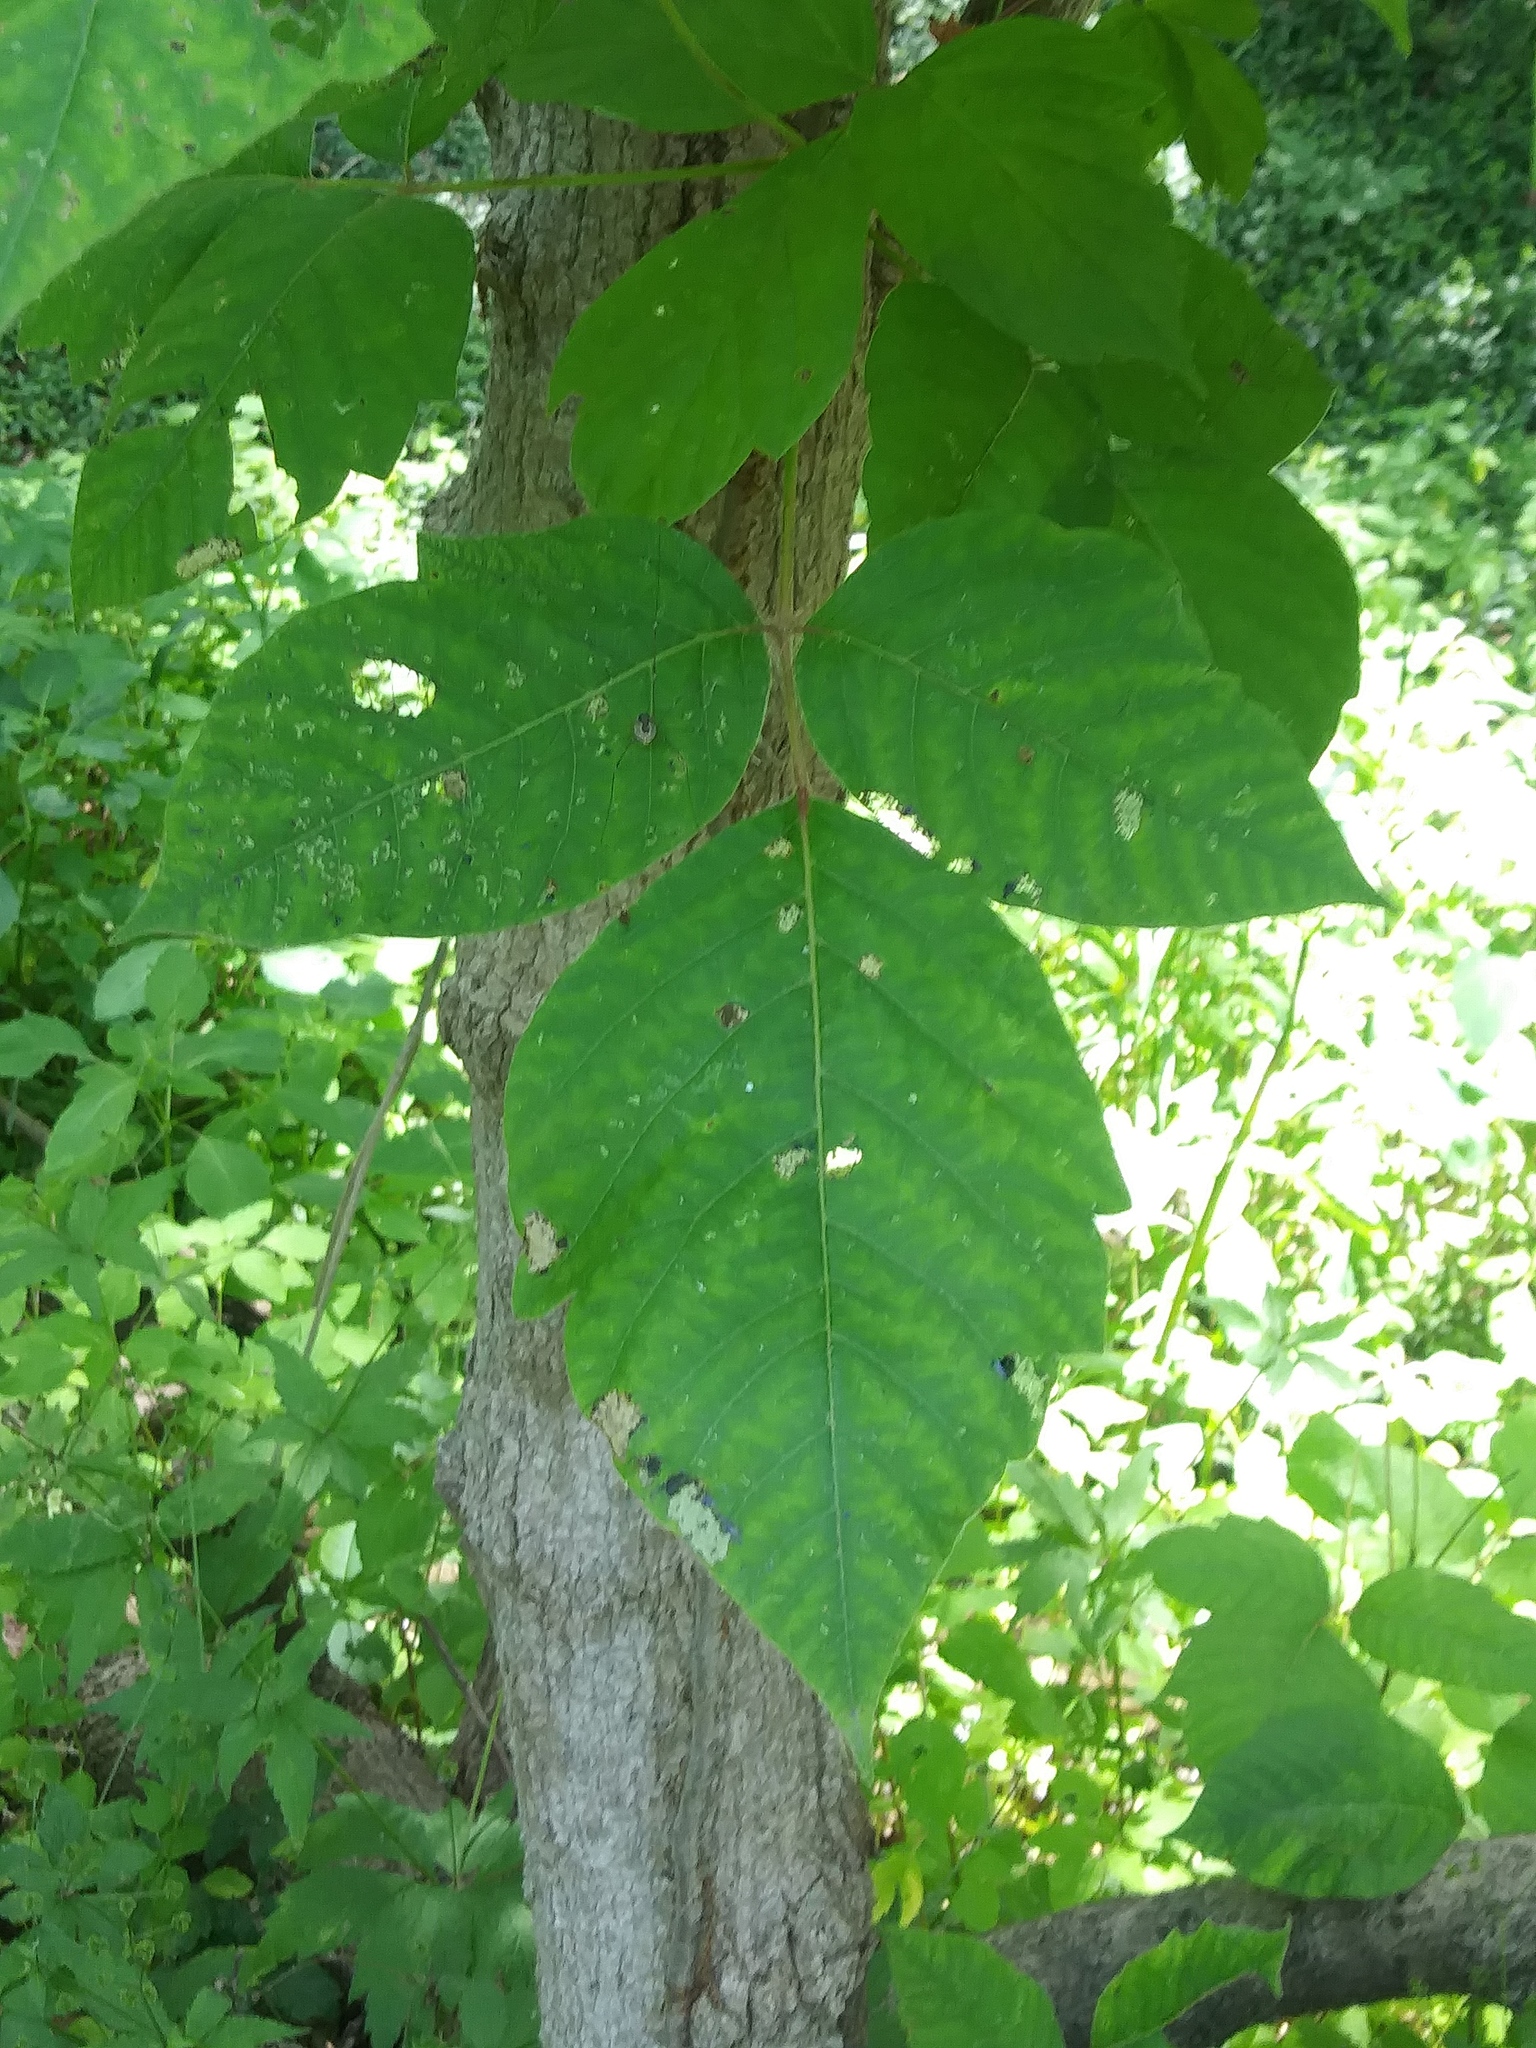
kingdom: Plantae
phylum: Tracheophyta
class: Magnoliopsida
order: Sapindales
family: Anacardiaceae
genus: Toxicodendron
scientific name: Toxicodendron radicans
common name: Poison ivy
